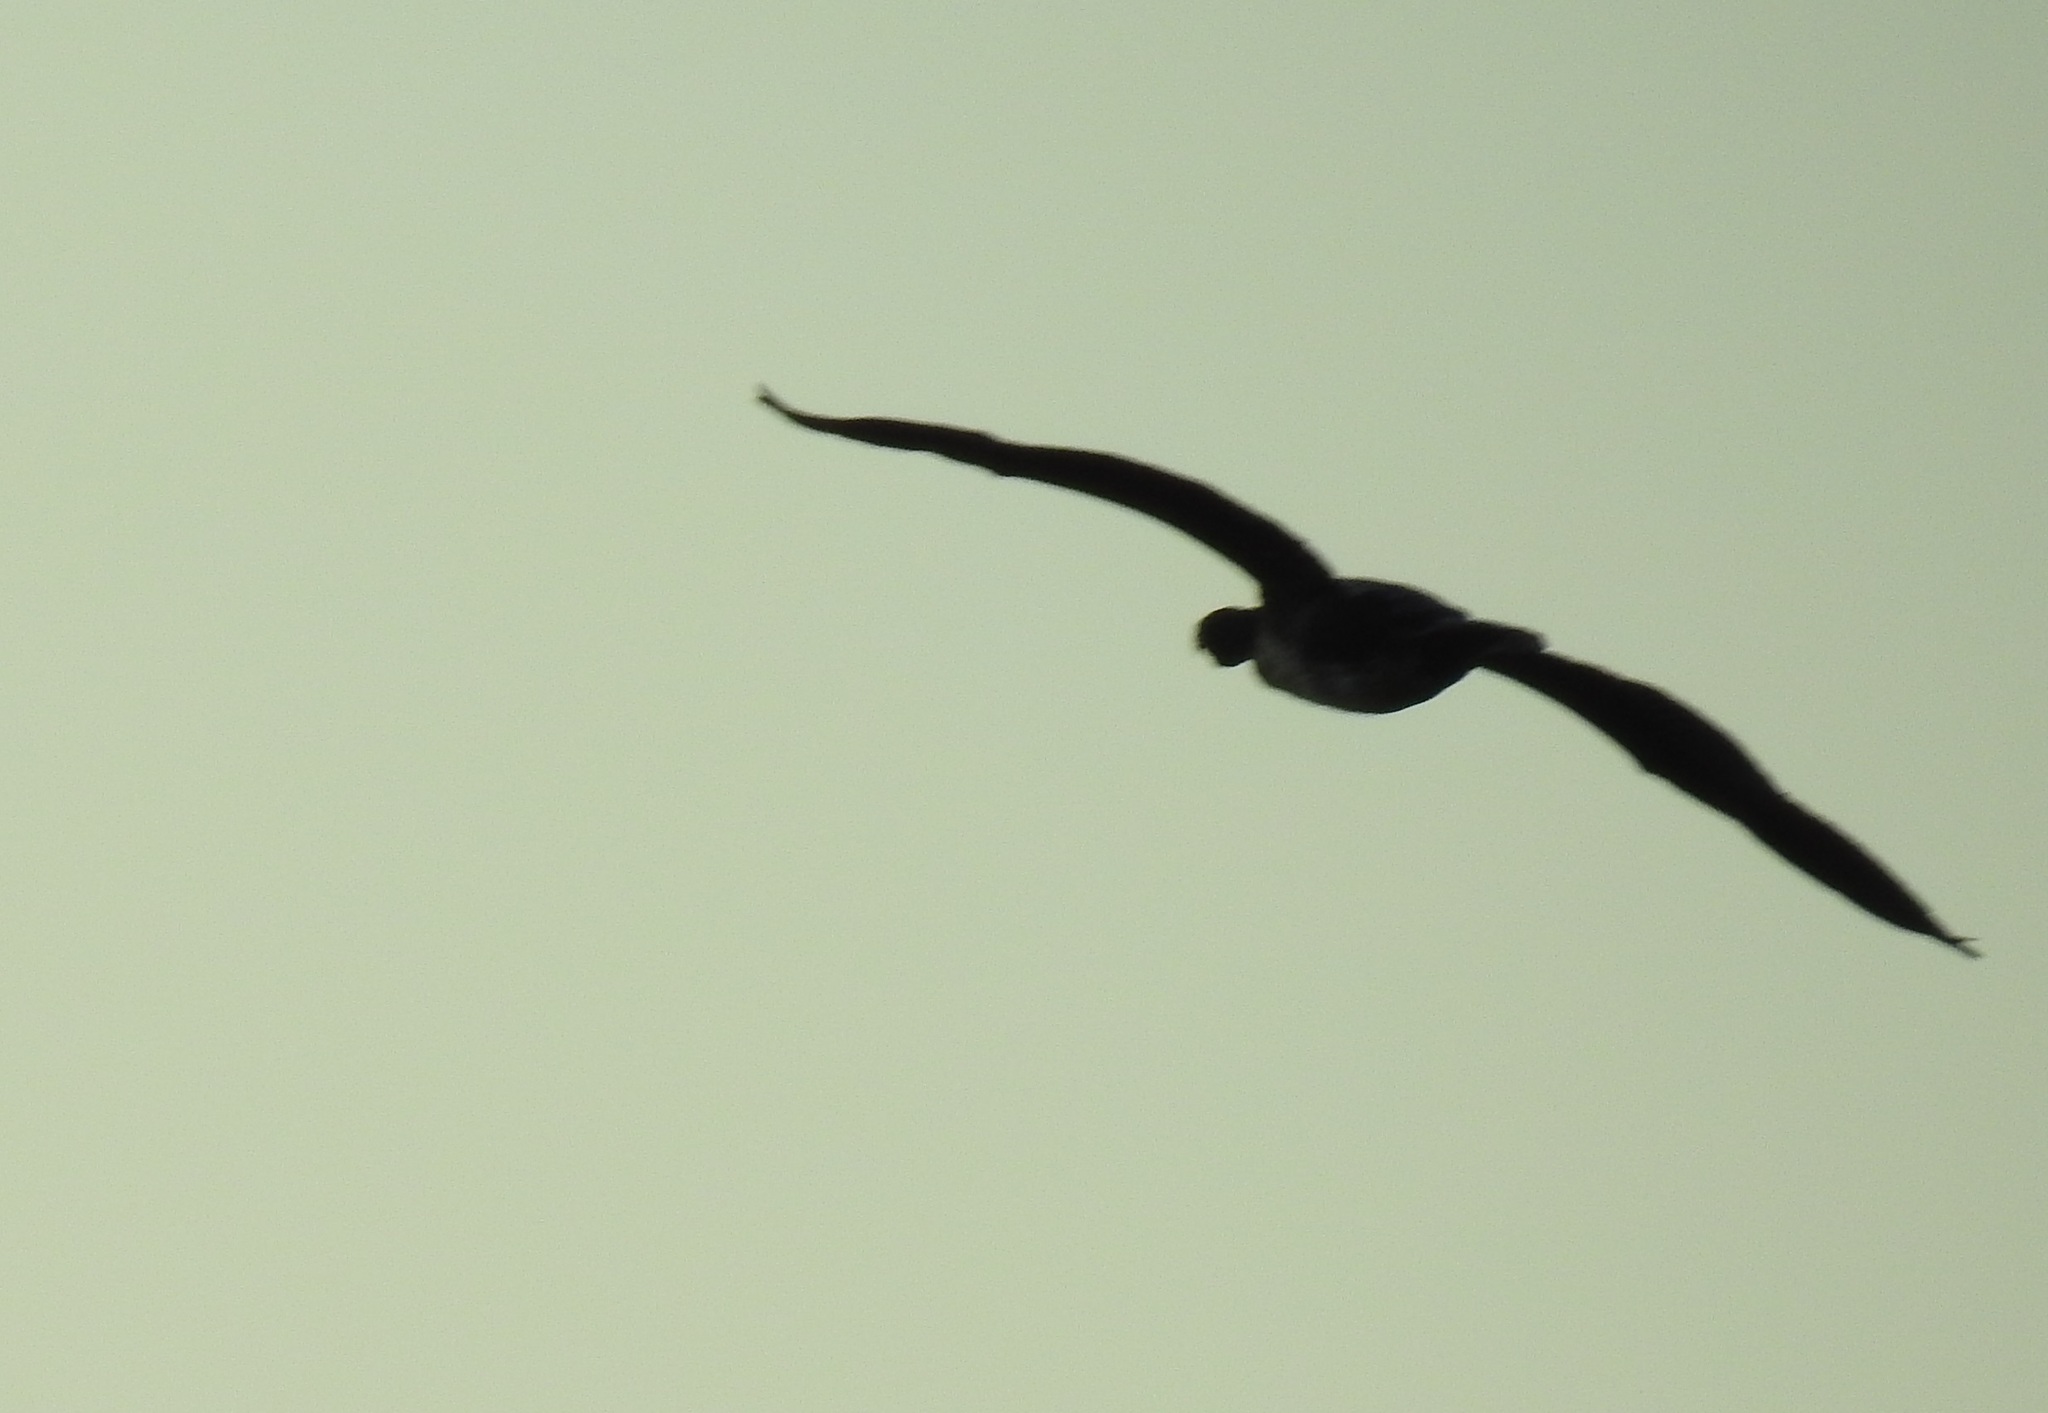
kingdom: Animalia
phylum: Chordata
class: Aves
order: Suliformes
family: Phalacrocoracidae
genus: Phalacrocorax
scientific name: Phalacrocorax carbo
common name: Great cormorant
